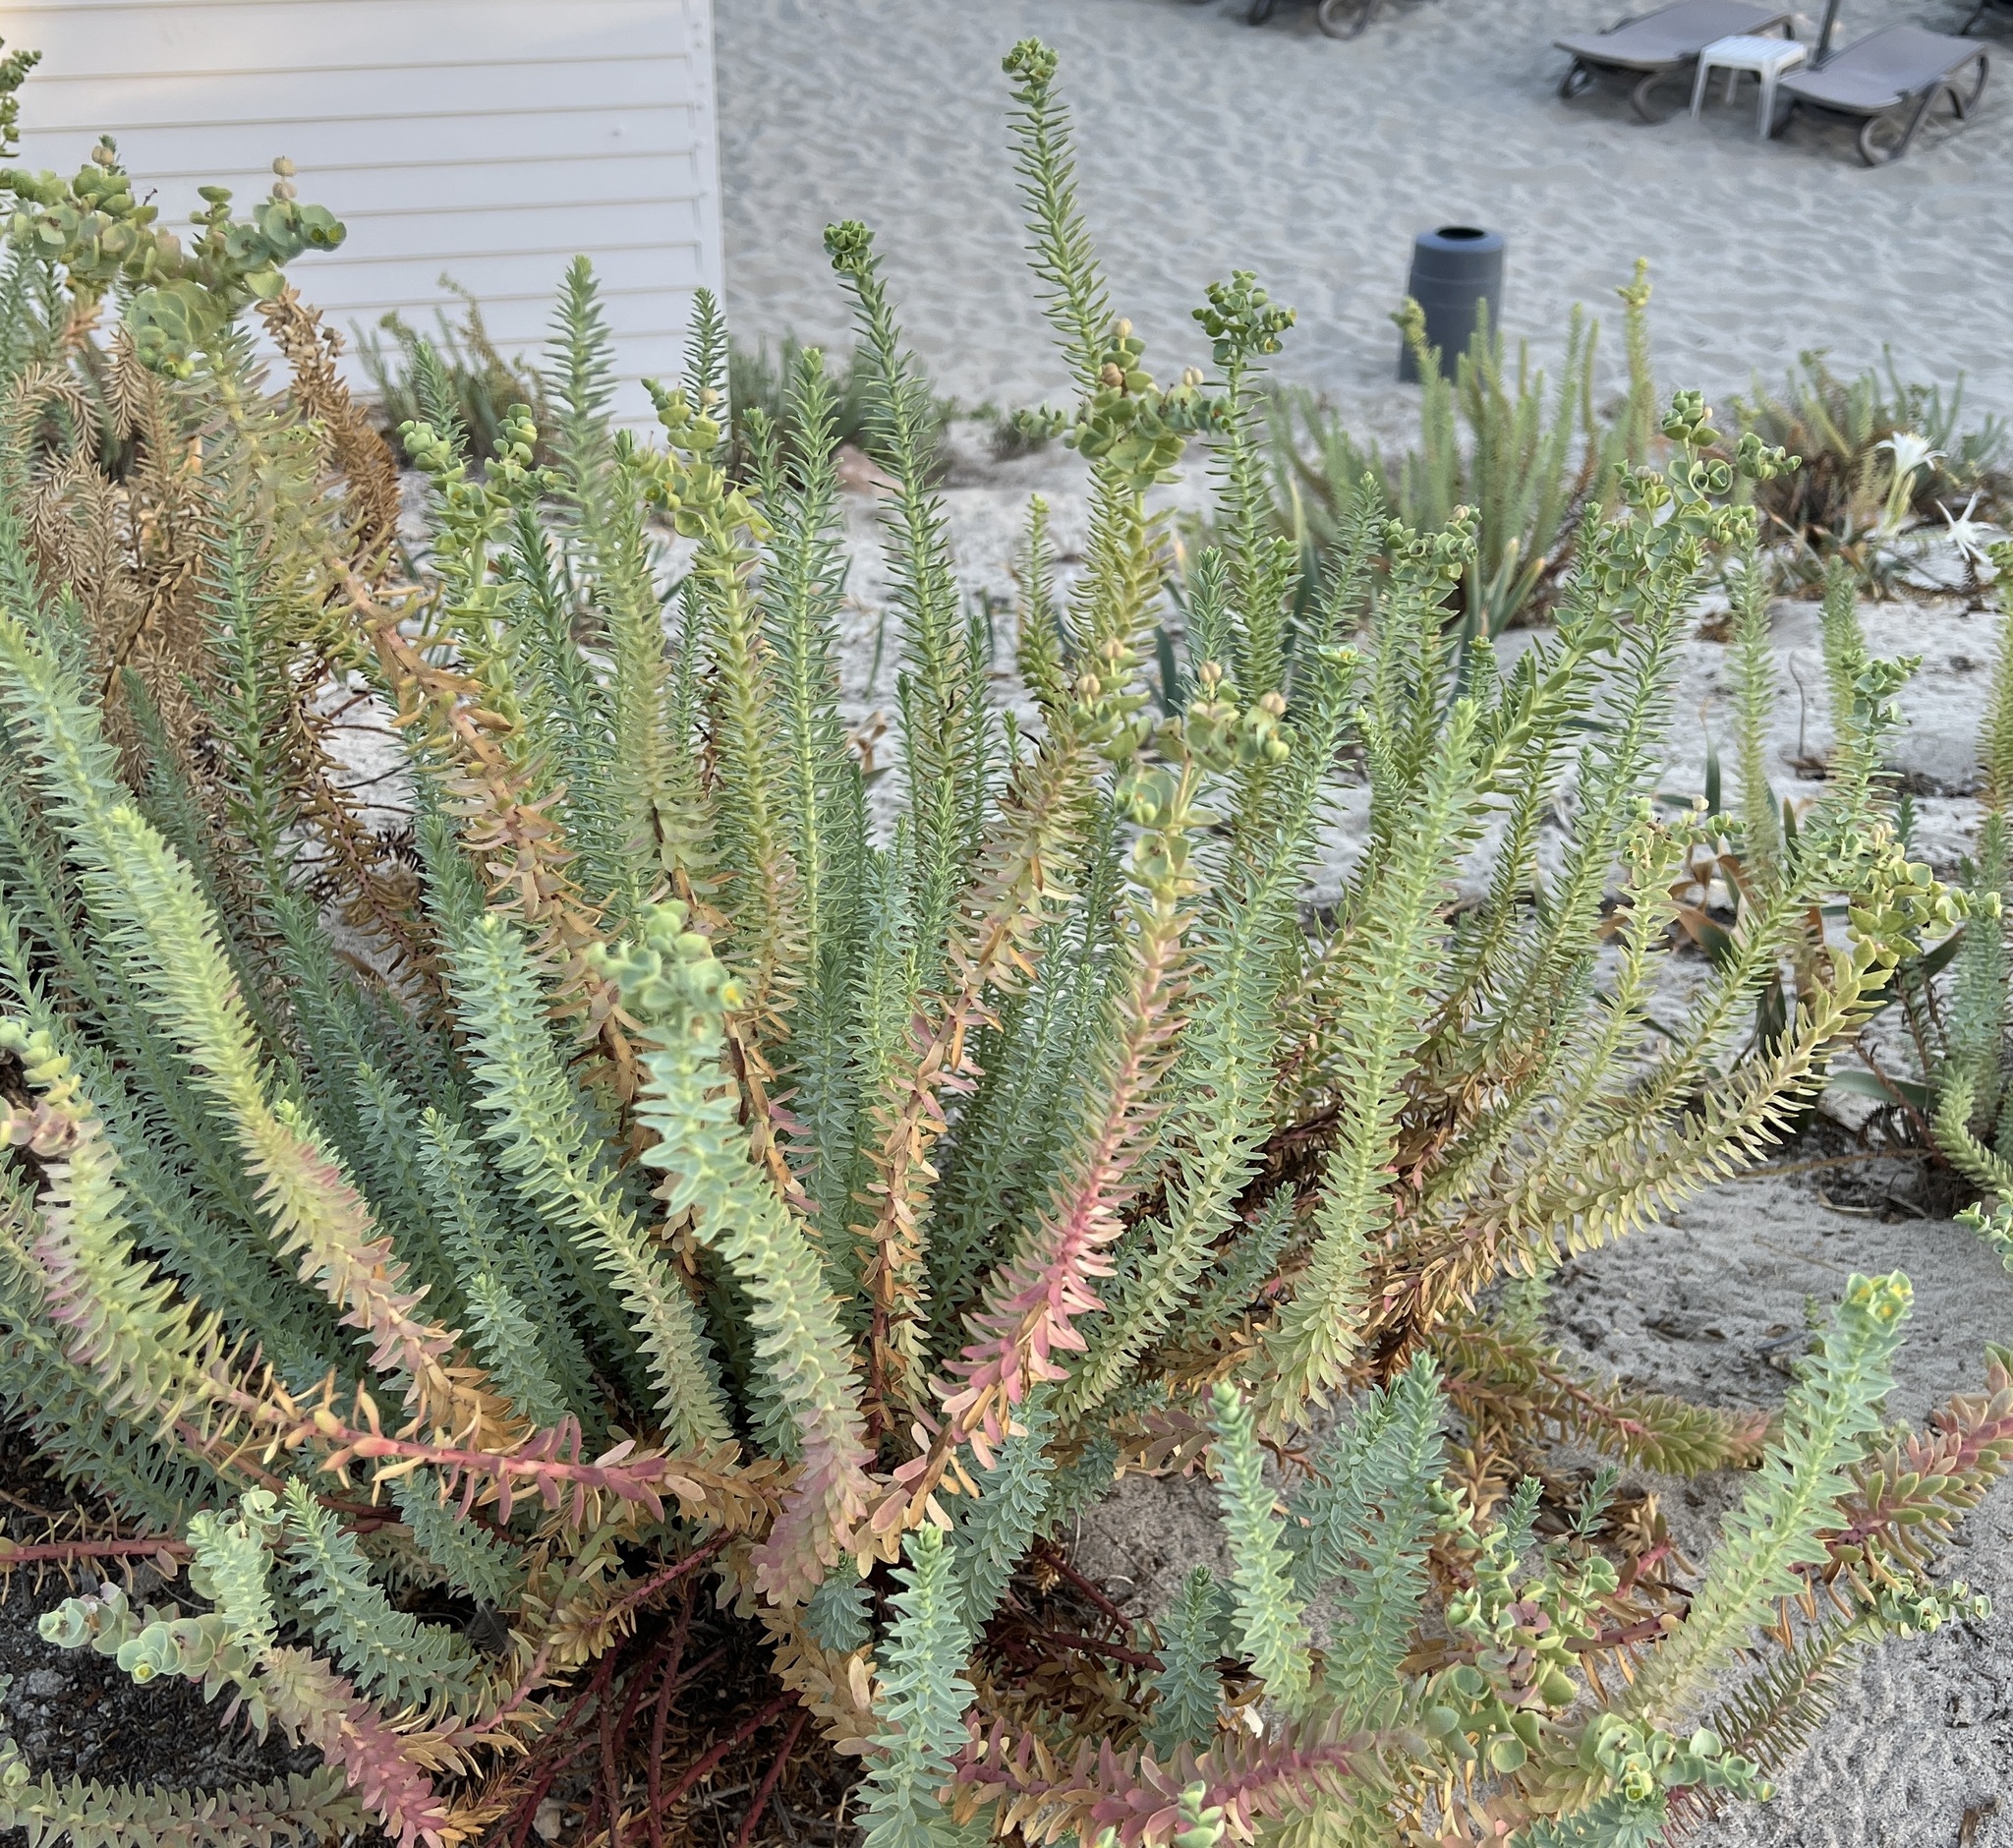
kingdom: Plantae
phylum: Tracheophyta
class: Magnoliopsida
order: Malpighiales
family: Euphorbiaceae
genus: Euphorbia
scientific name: Euphorbia paralias
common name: Sea spurge
